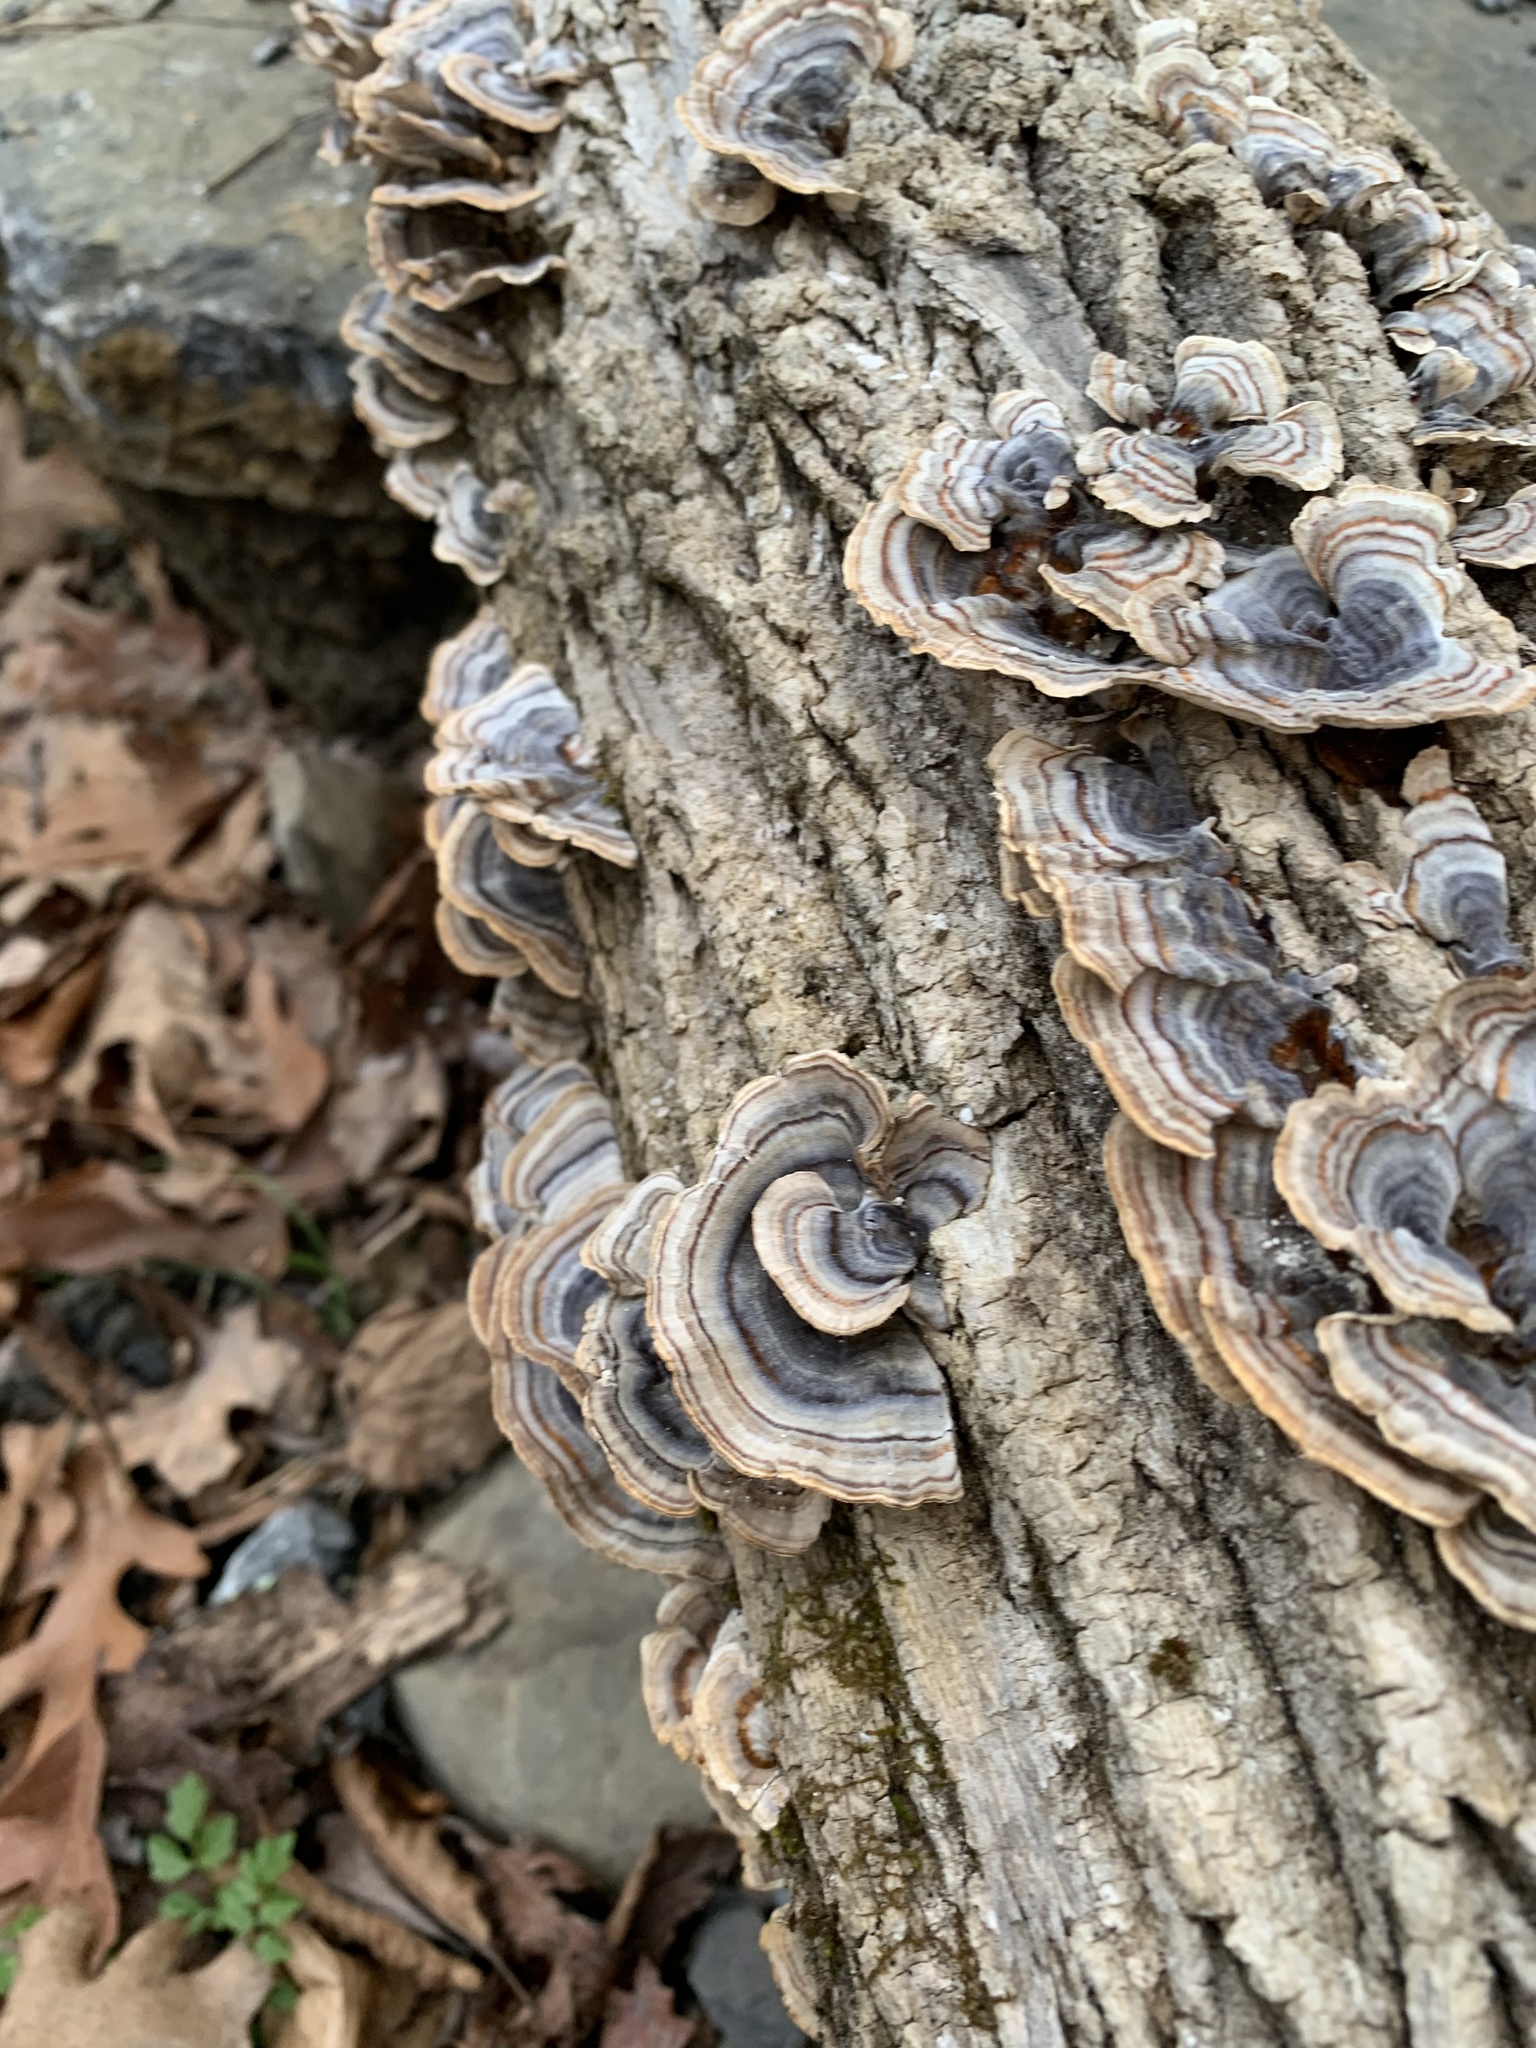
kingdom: Fungi
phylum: Basidiomycota
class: Agaricomycetes
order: Polyporales
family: Polyporaceae
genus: Trametes
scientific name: Trametes versicolor
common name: Turkeytail
